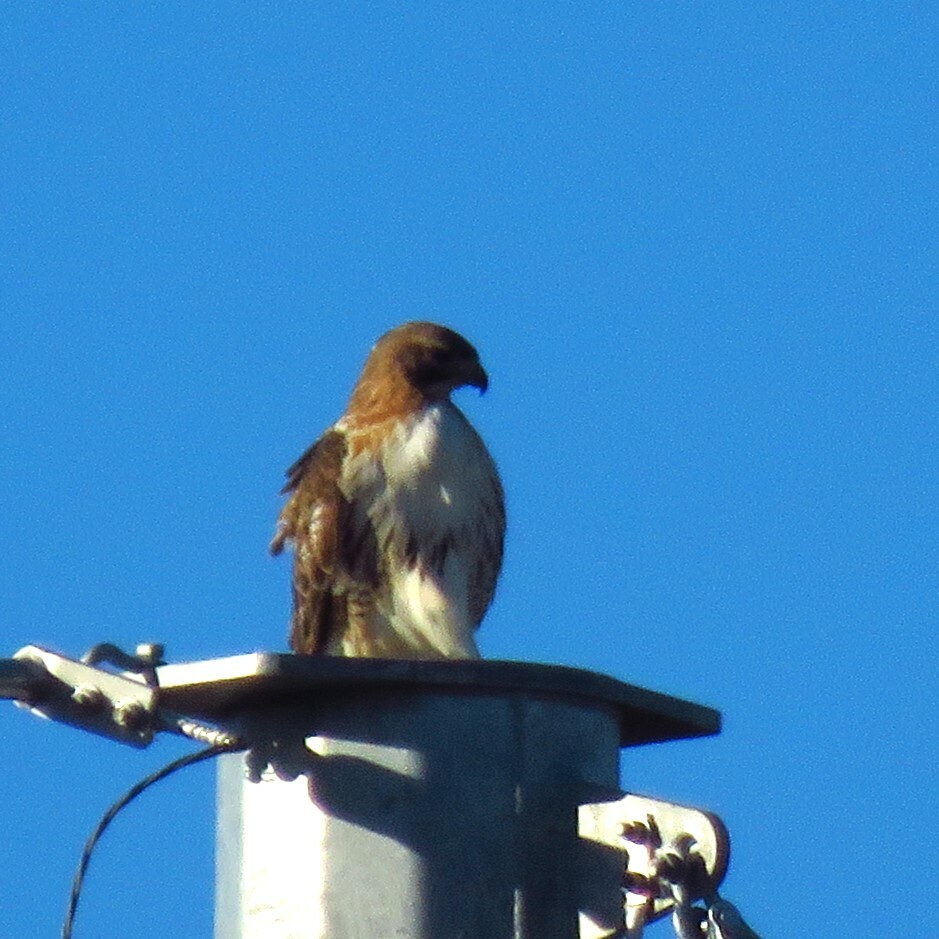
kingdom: Animalia
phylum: Chordata
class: Aves
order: Accipitriformes
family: Accipitridae
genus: Buteo
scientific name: Buteo jamaicensis
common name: Red-tailed hawk
